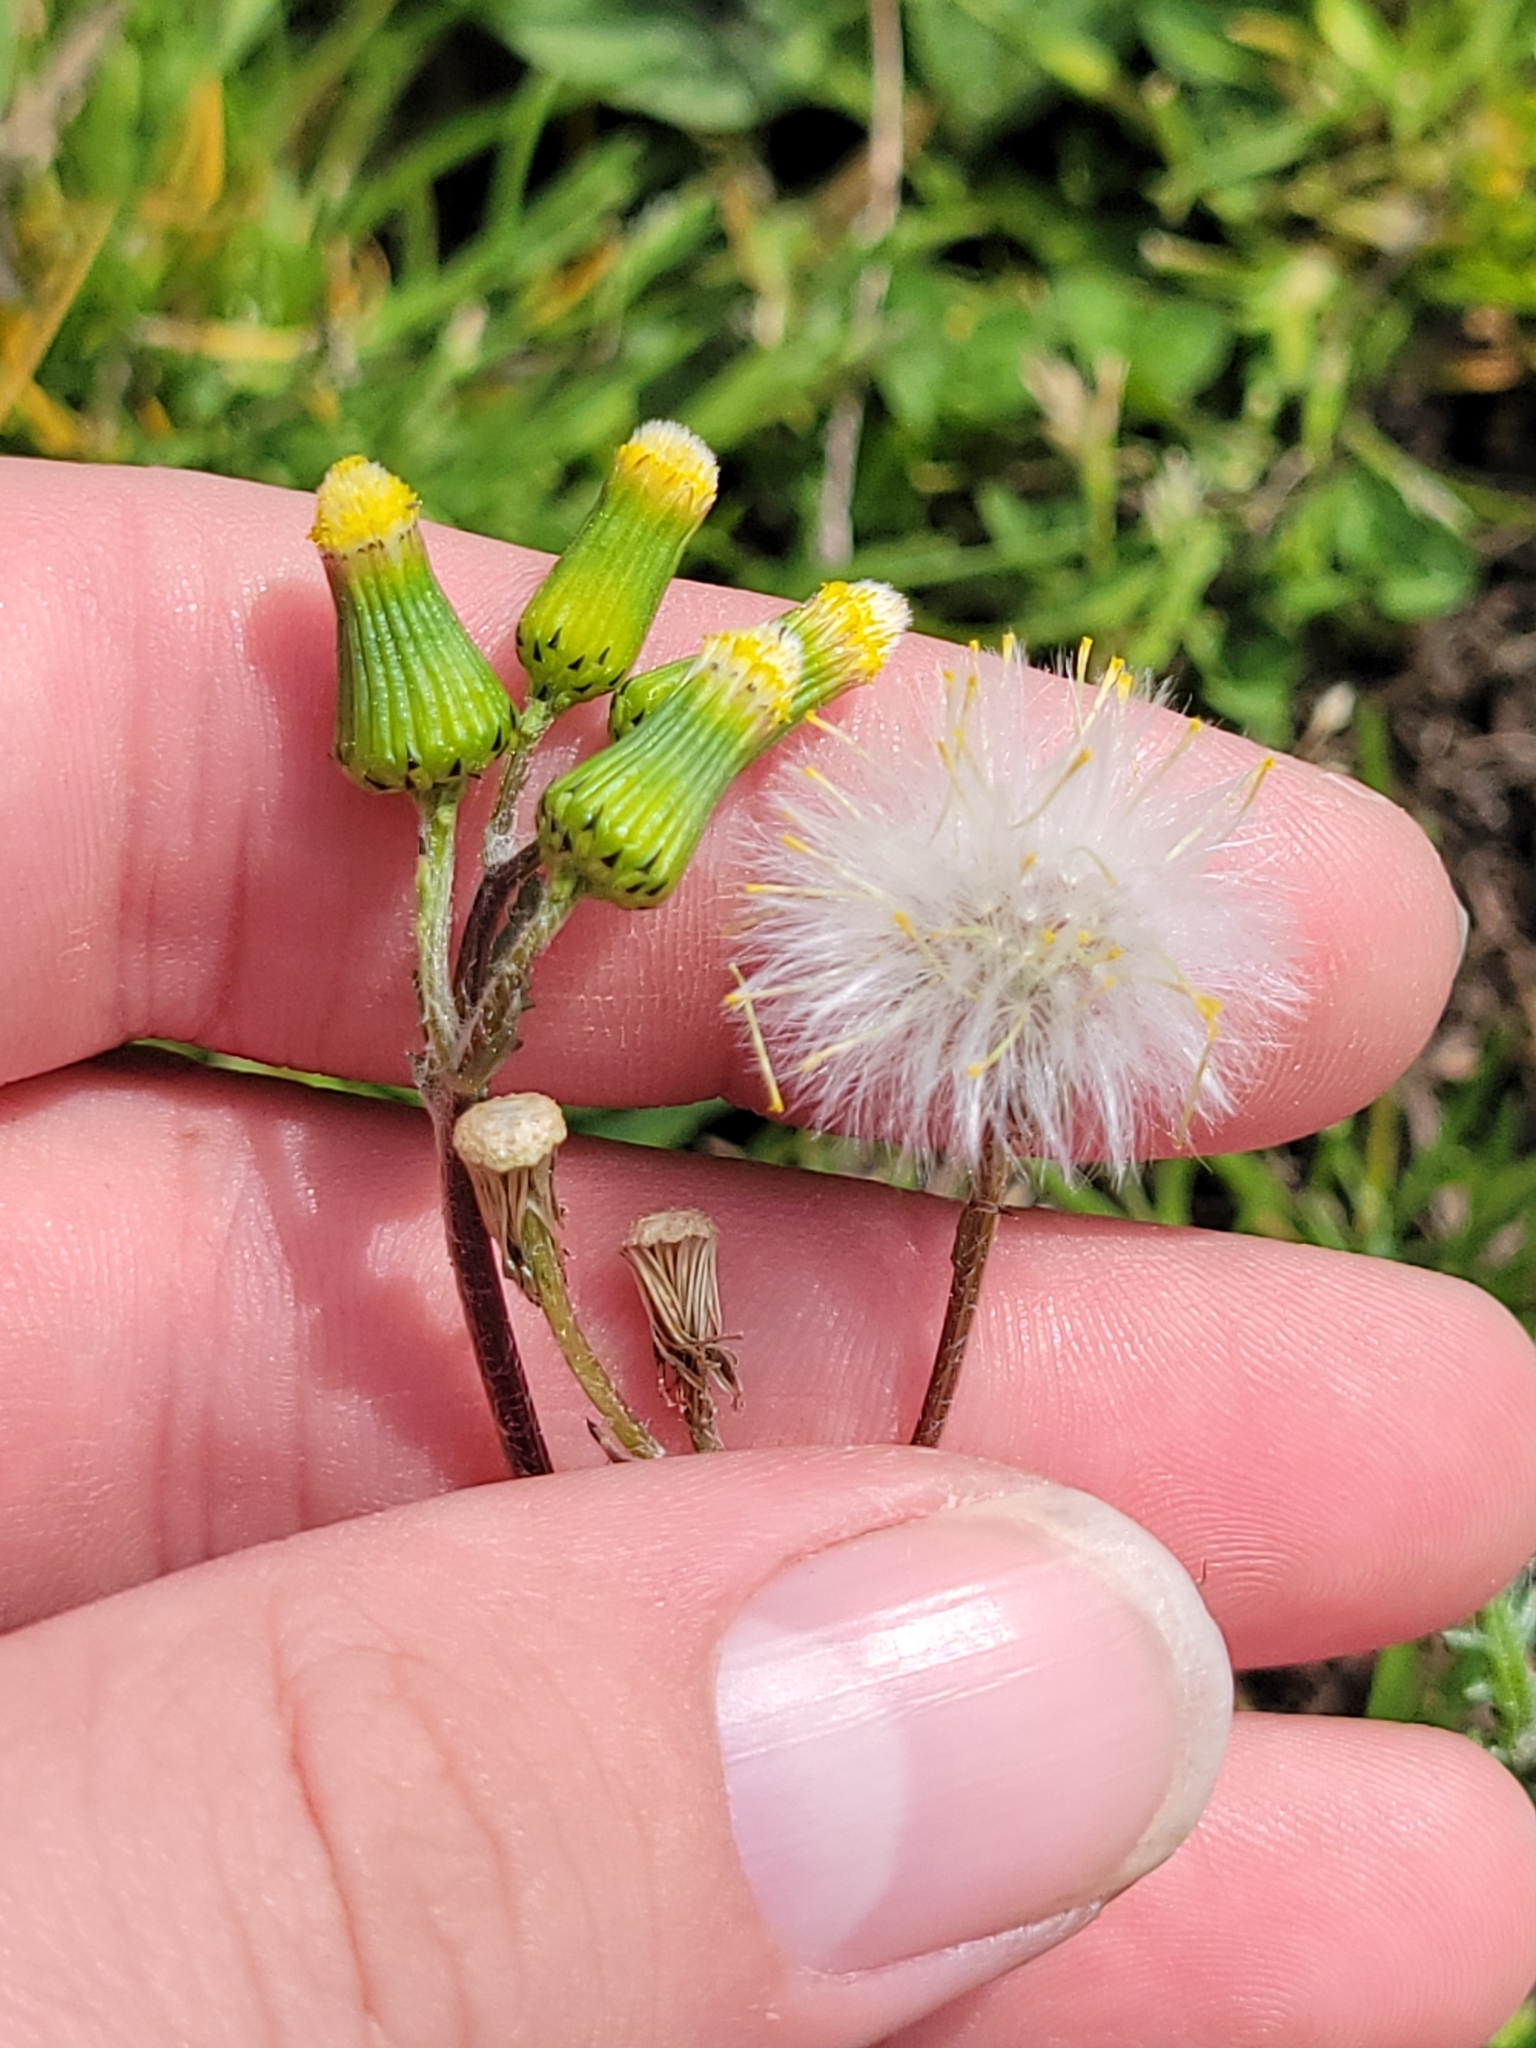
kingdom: Plantae
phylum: Tracheophyta
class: Magnoliopsida
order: Asterales
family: Asteraceae
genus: Senecio
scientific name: Senecio vulgaris
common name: Old-man-in-the-spring
